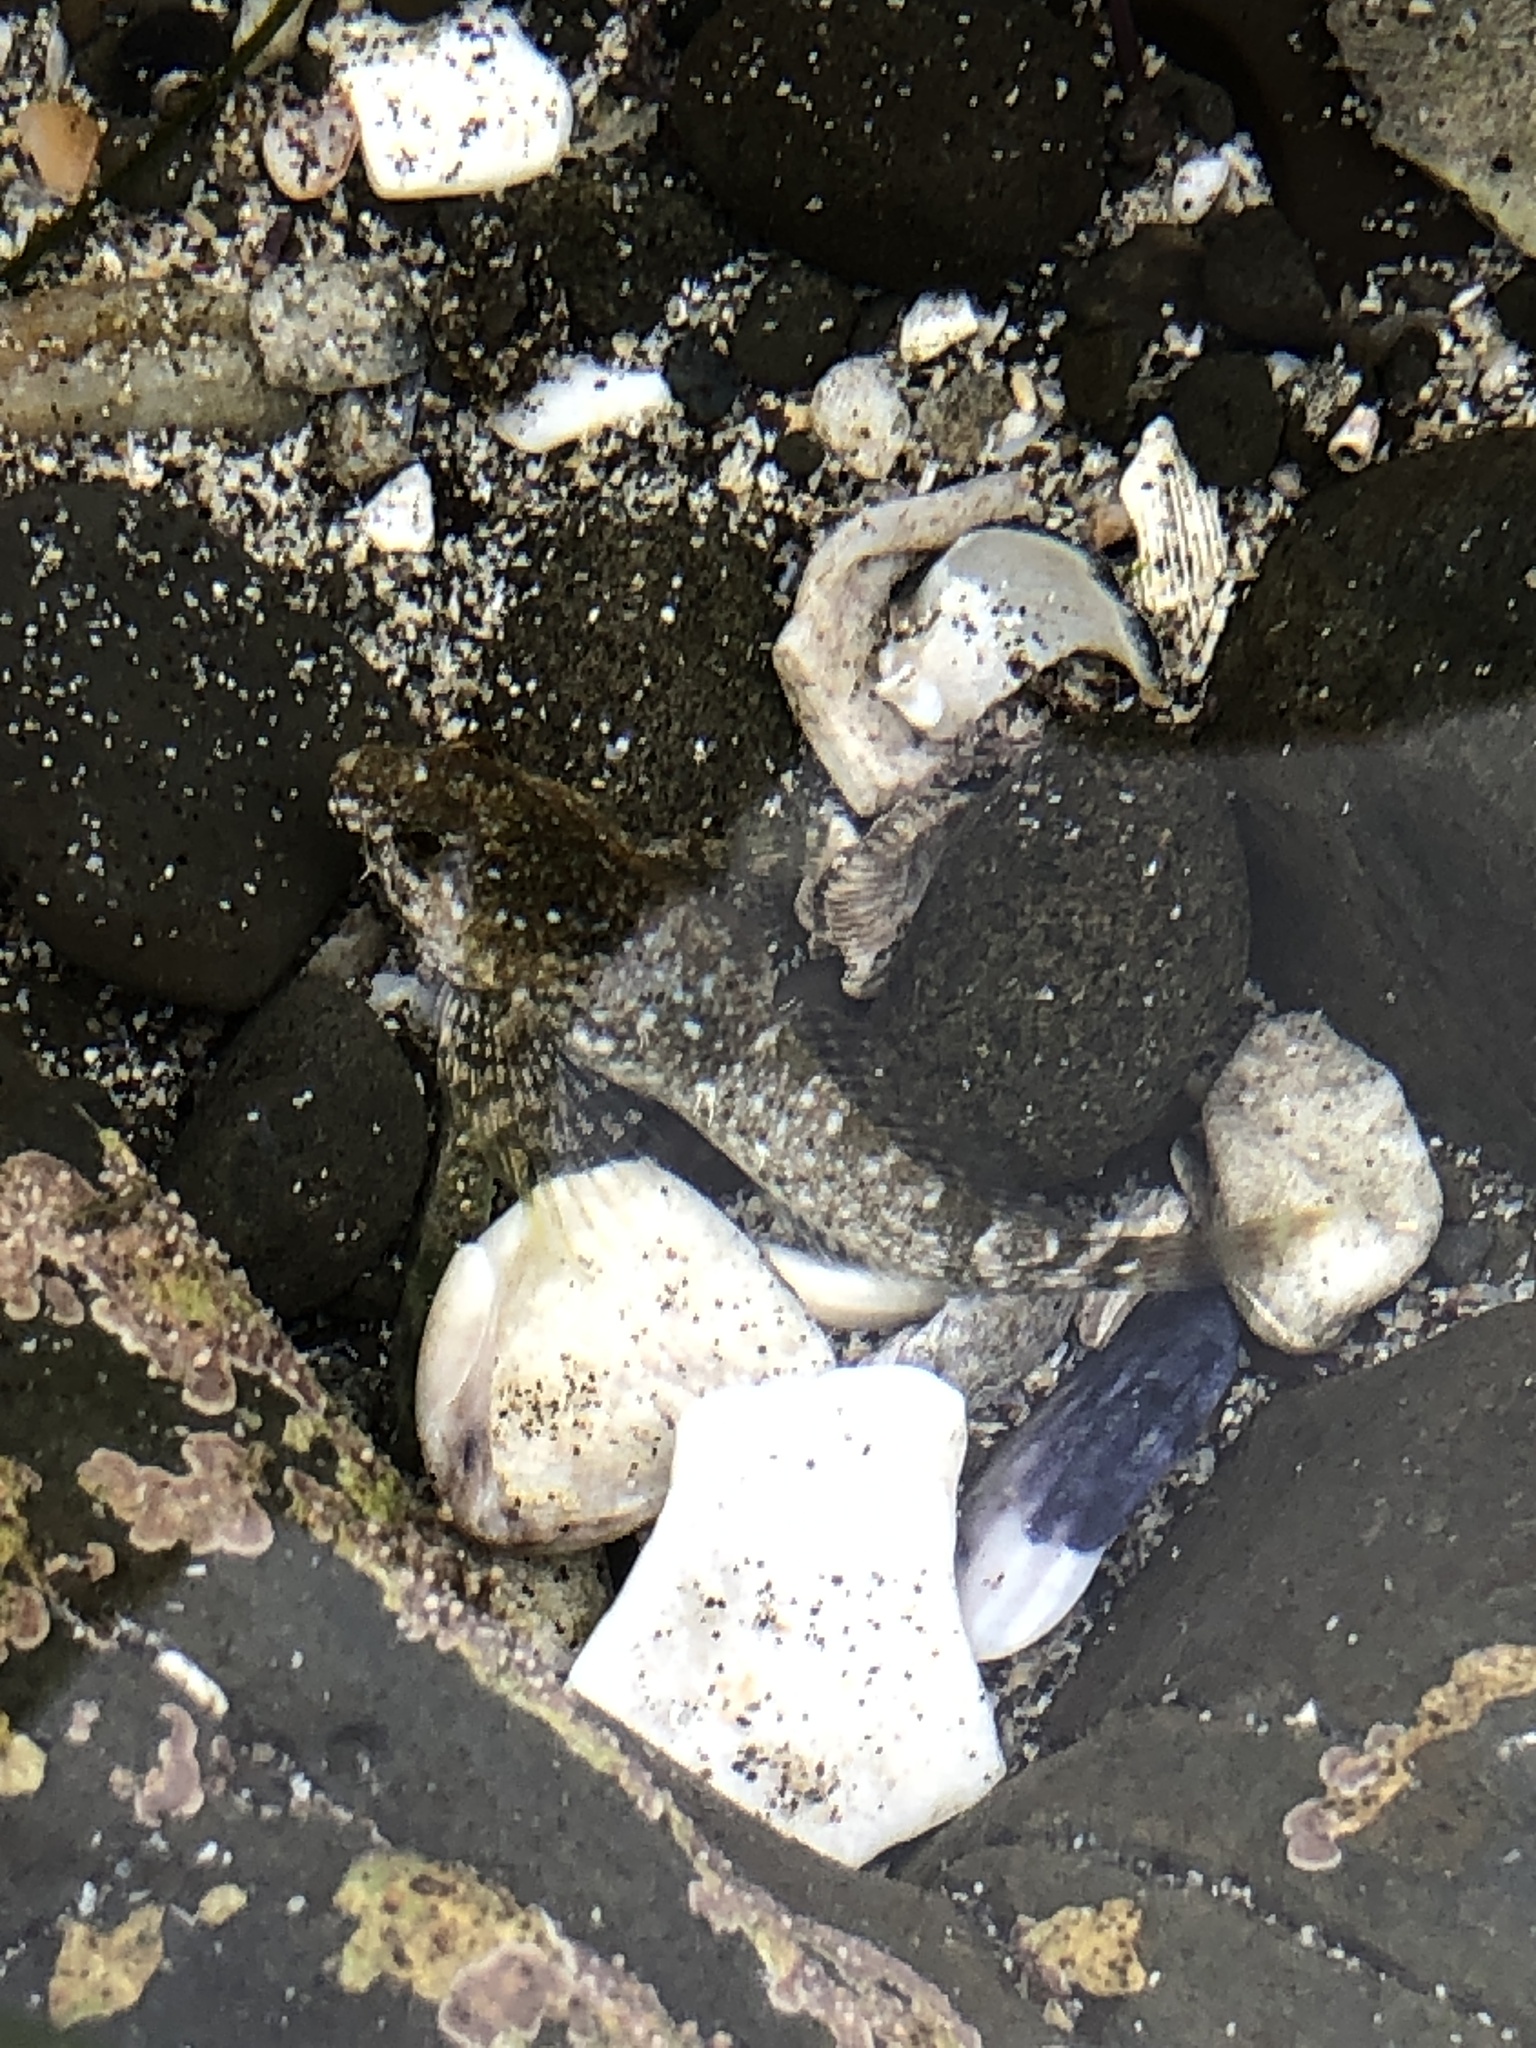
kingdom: Animalia
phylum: Chordata
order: Scorpaeniformes
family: Cottidae
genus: Clinocottus
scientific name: Clinocottus analis
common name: Woolly sculpin
